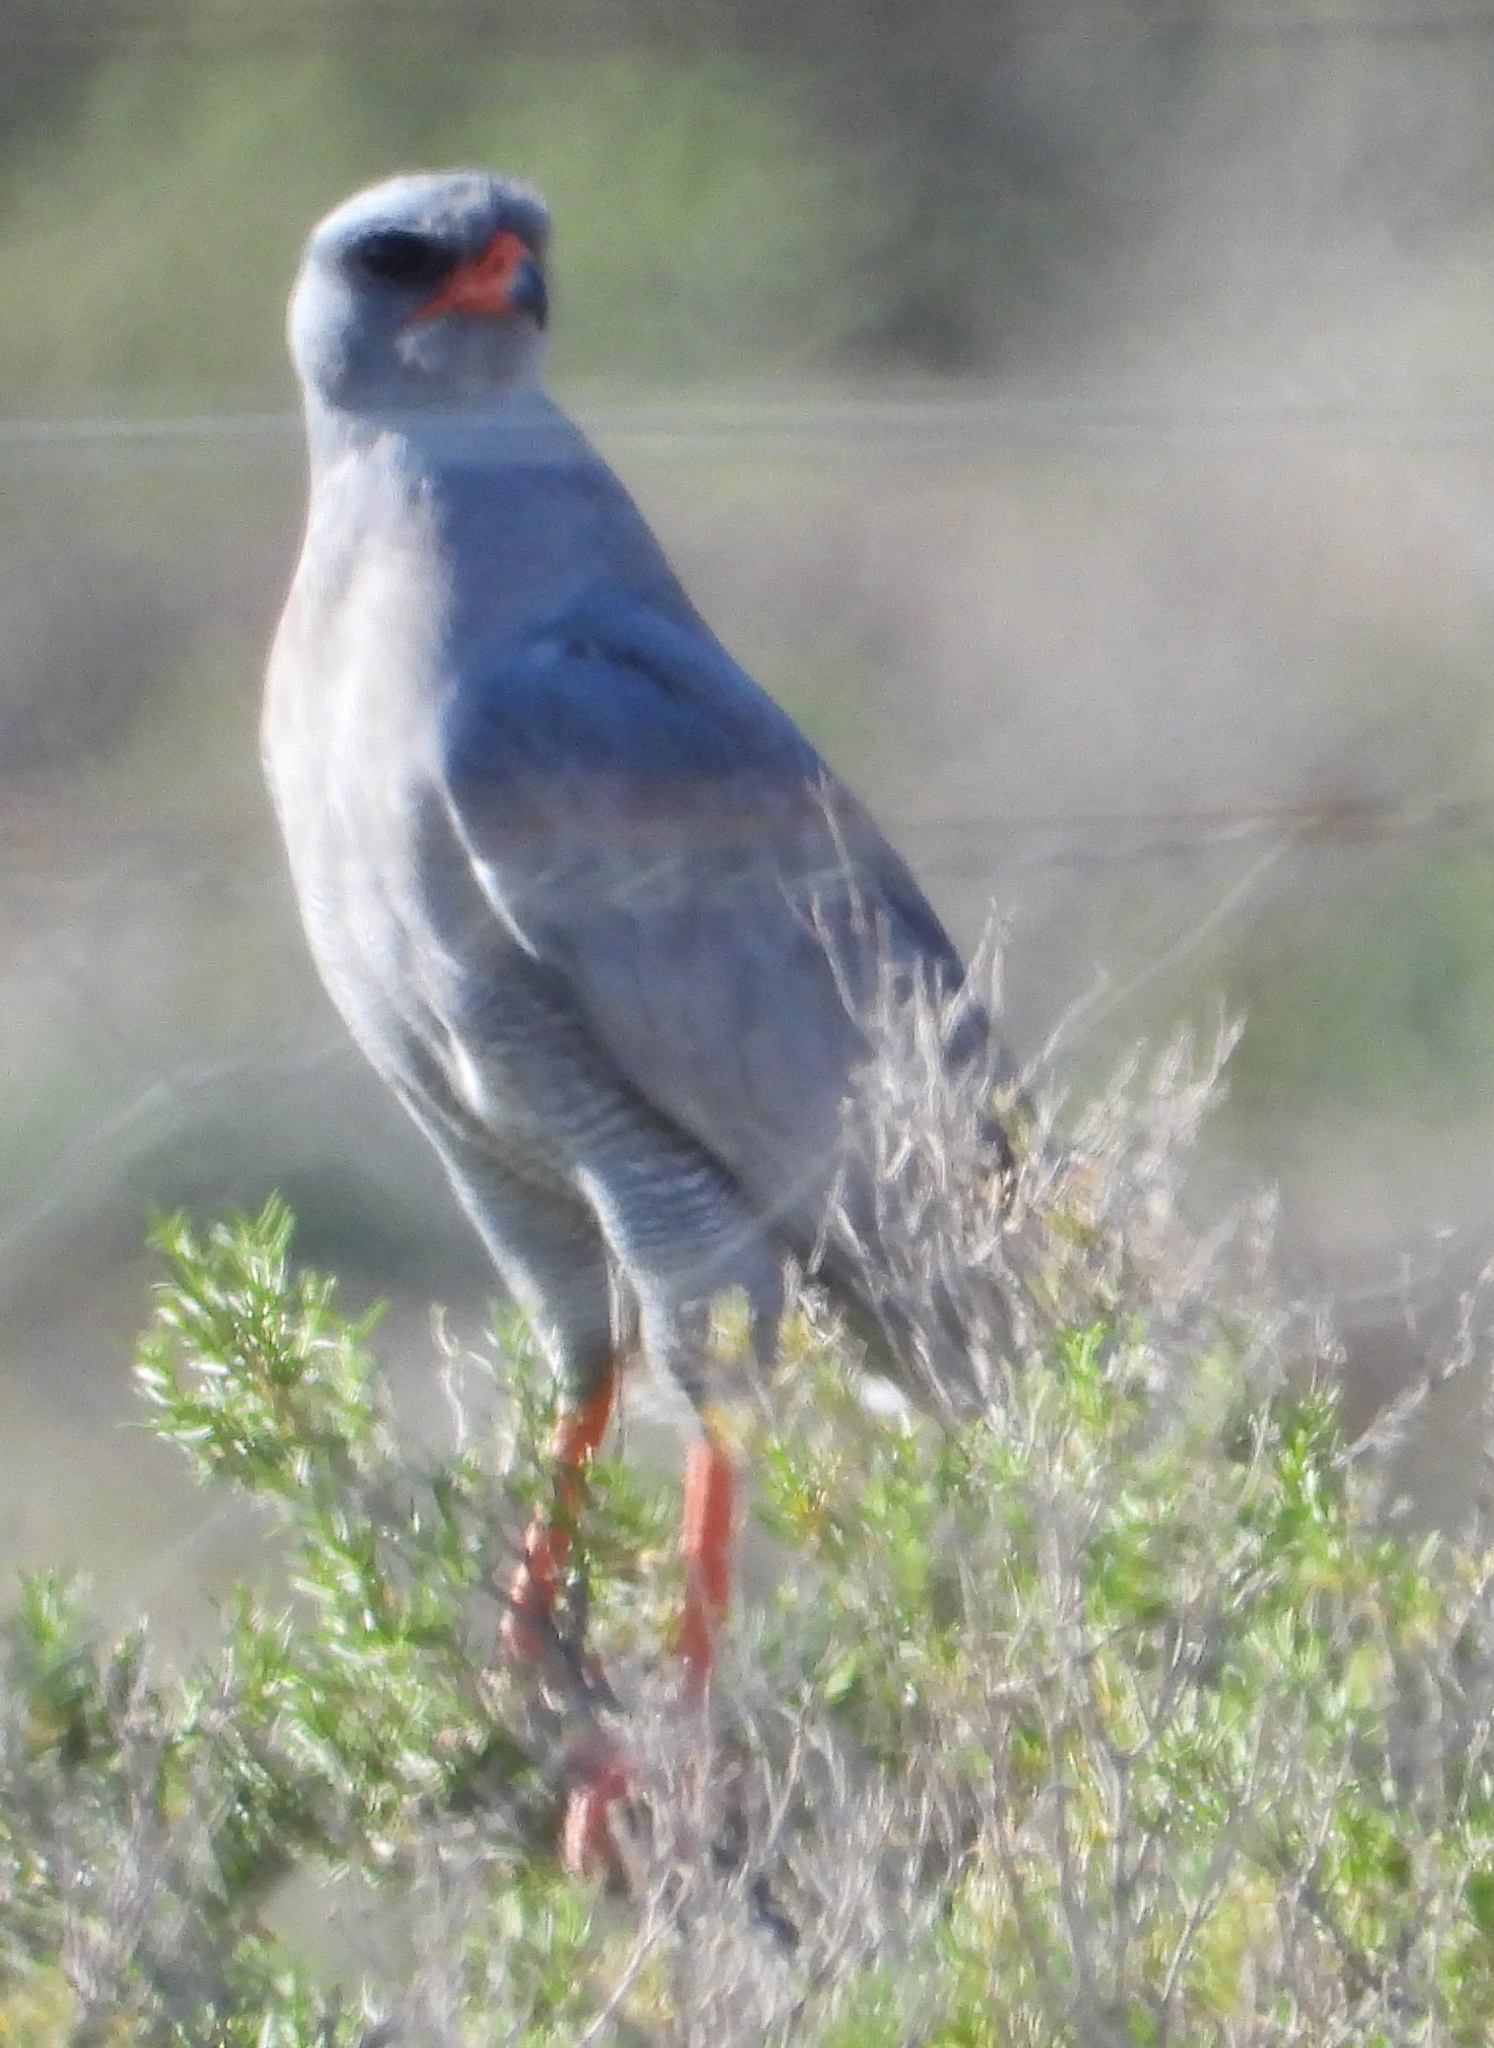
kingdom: Animalia
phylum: Chordata
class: Aves
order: Accipitriformes
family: Accipitridae
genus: Melierax
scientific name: Melierax canorus
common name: Pale chanting-goshawk
